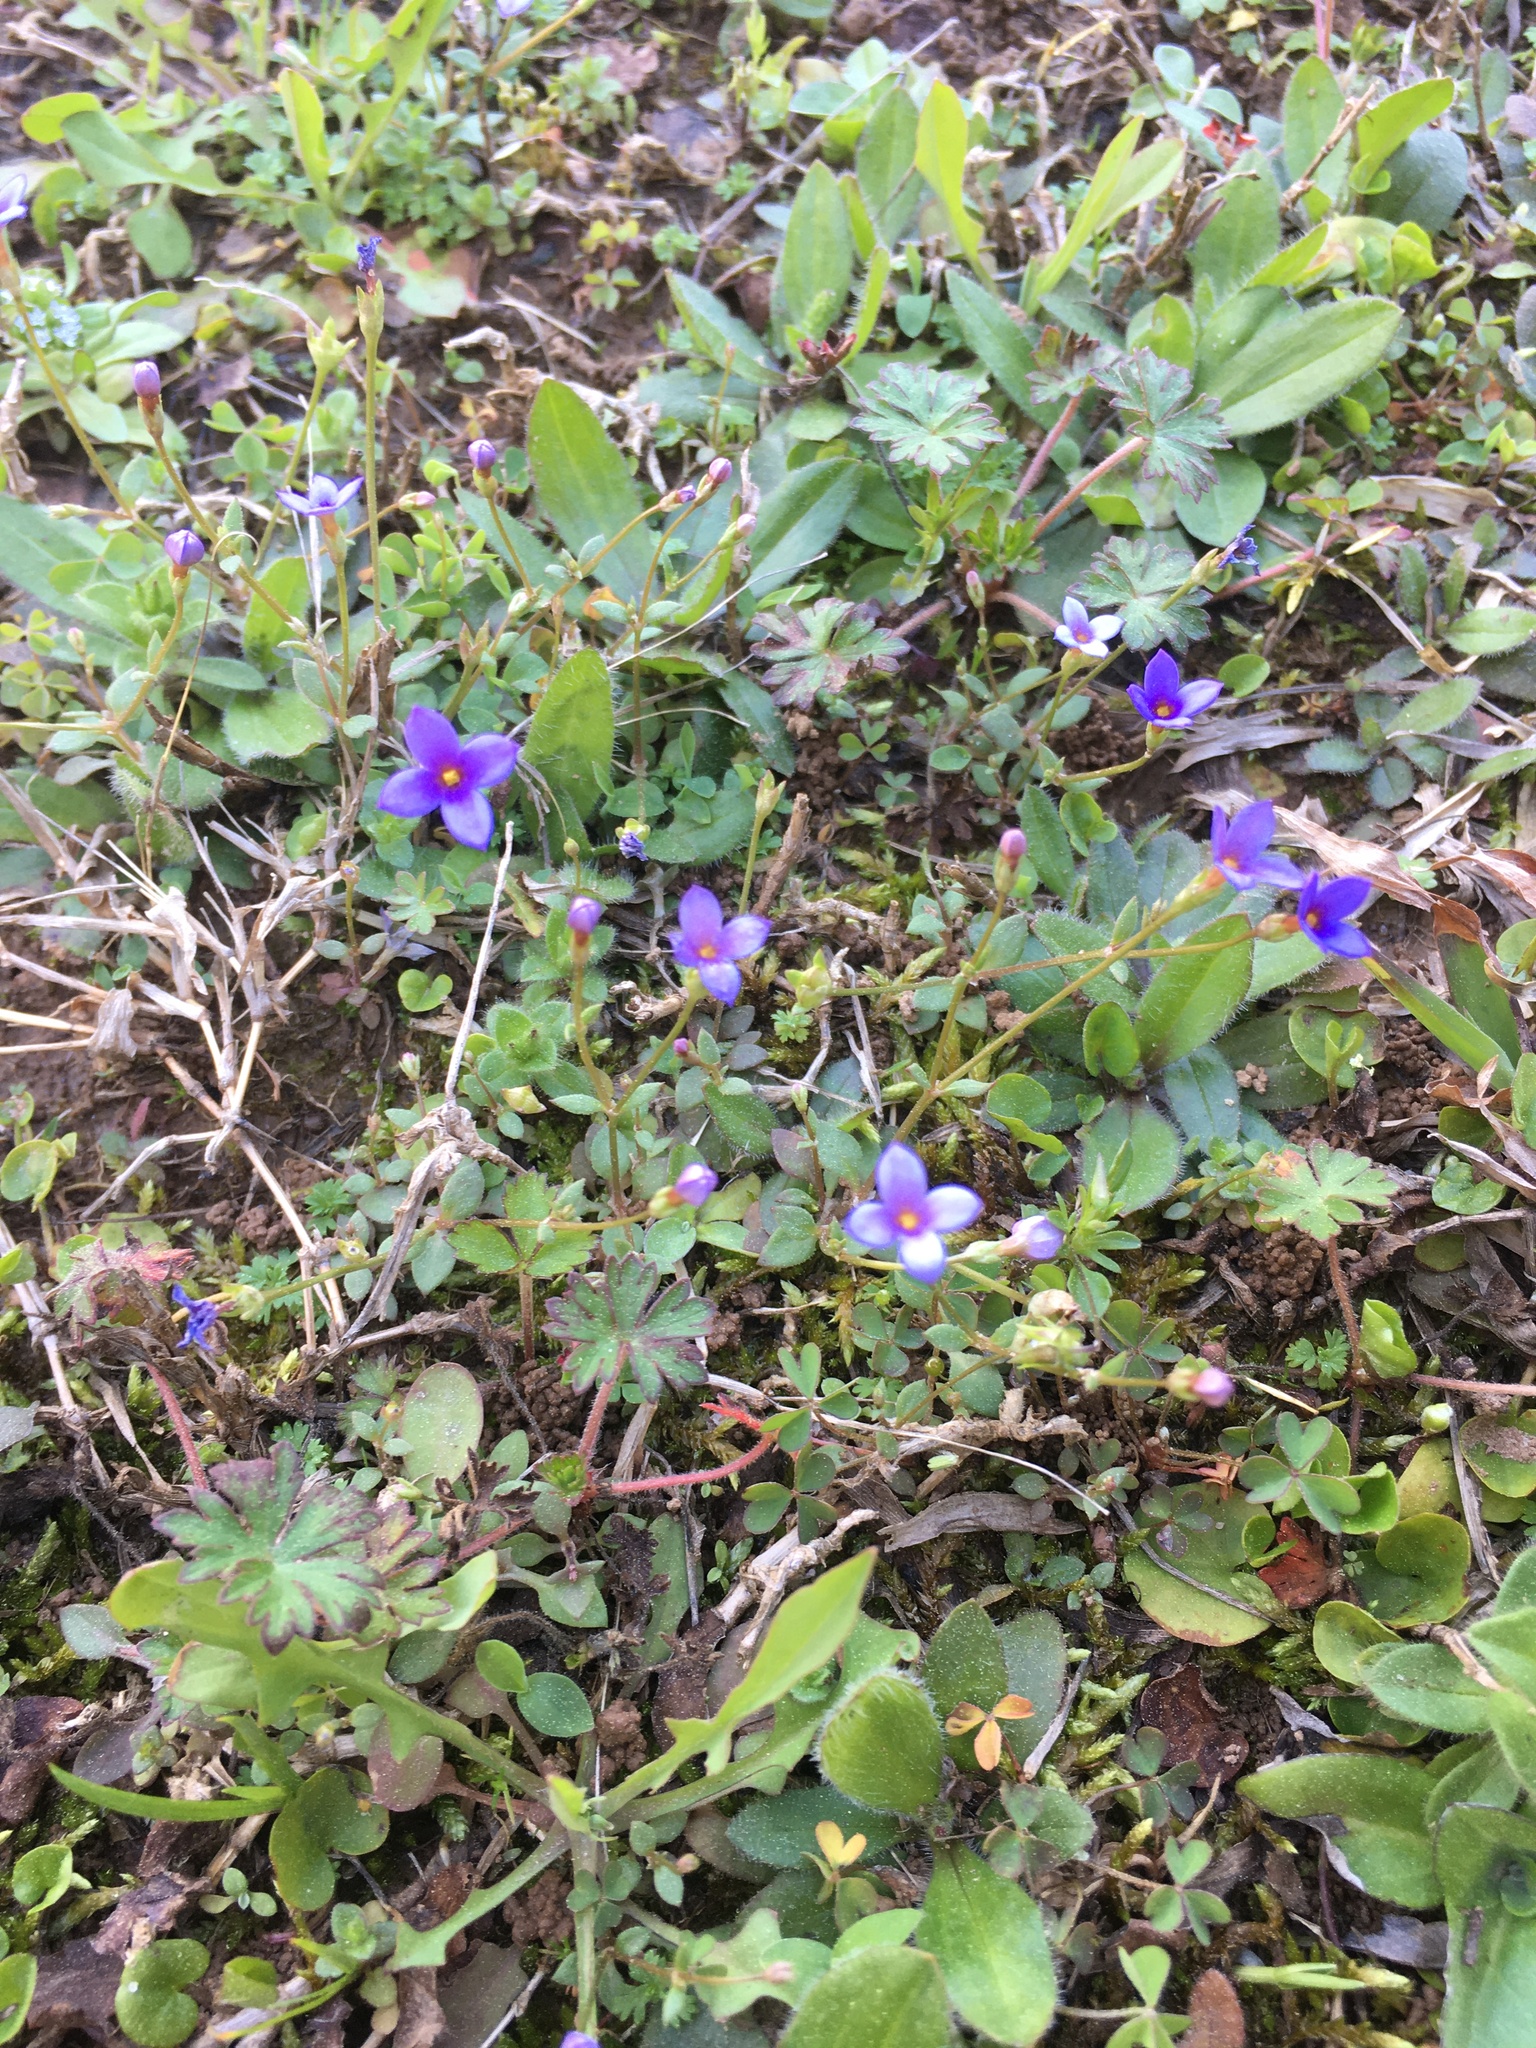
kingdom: Plantae
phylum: Tracheophyta
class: Magnoliopsida
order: Gentianales
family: Rubiaceae
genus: Houstonia
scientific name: Houstonia pusilla
